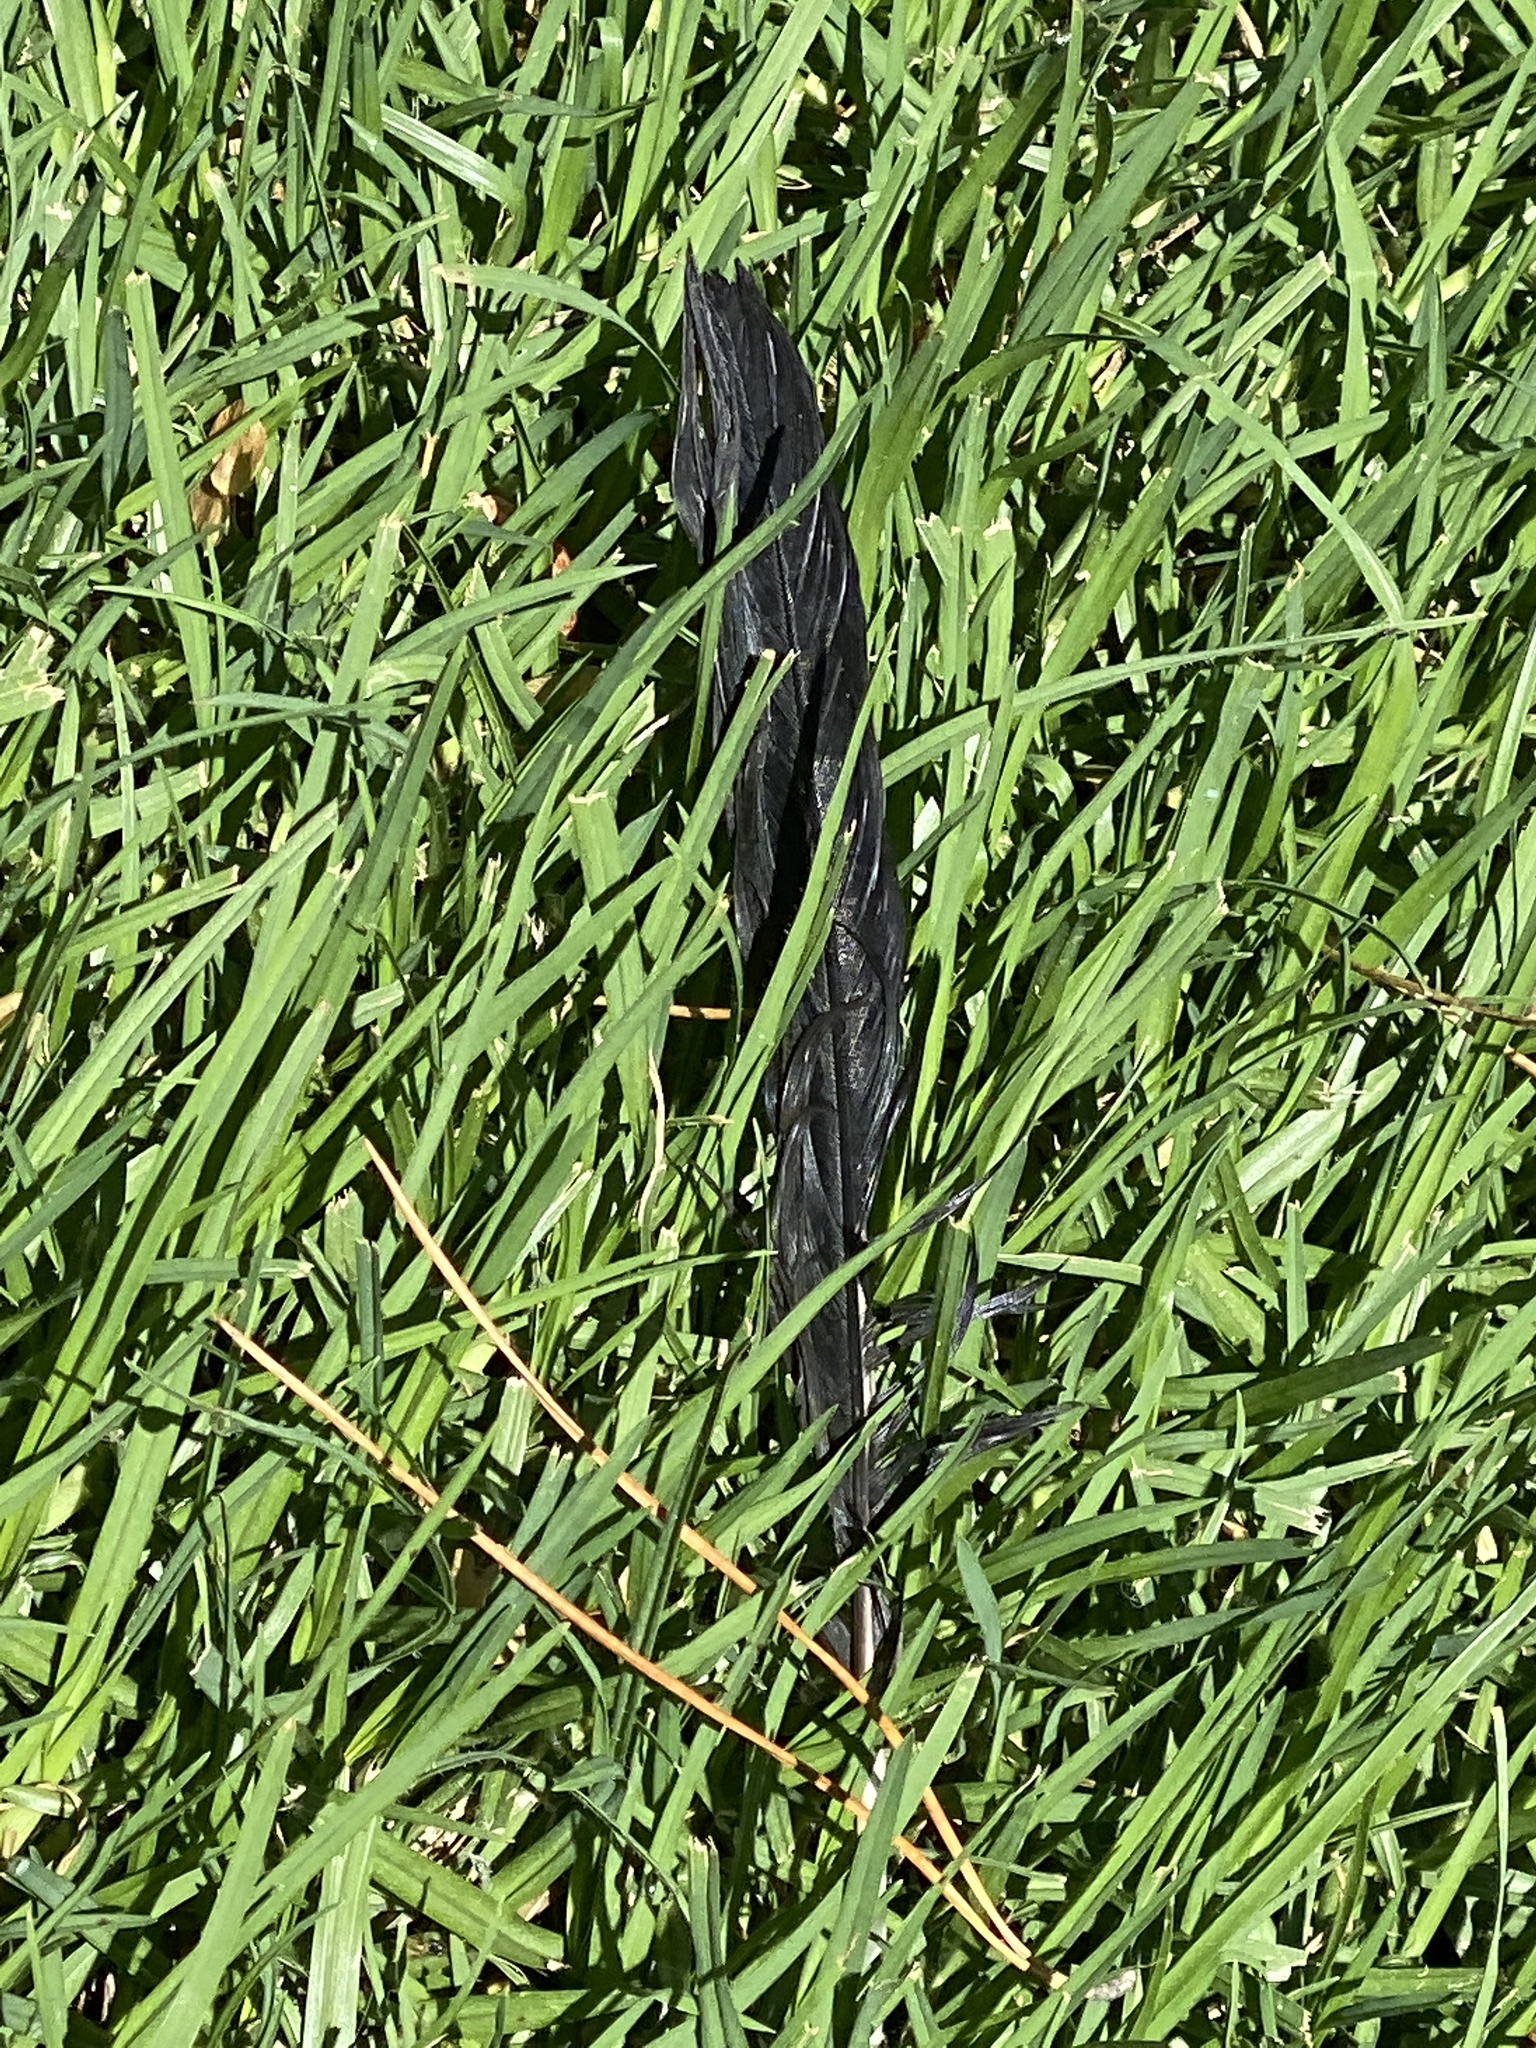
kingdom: Animalia
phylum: Chordata
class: Aves
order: Passeriformes
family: Corvidae
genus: Corvus
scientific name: Corvus brachyrhynchos
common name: American crow
